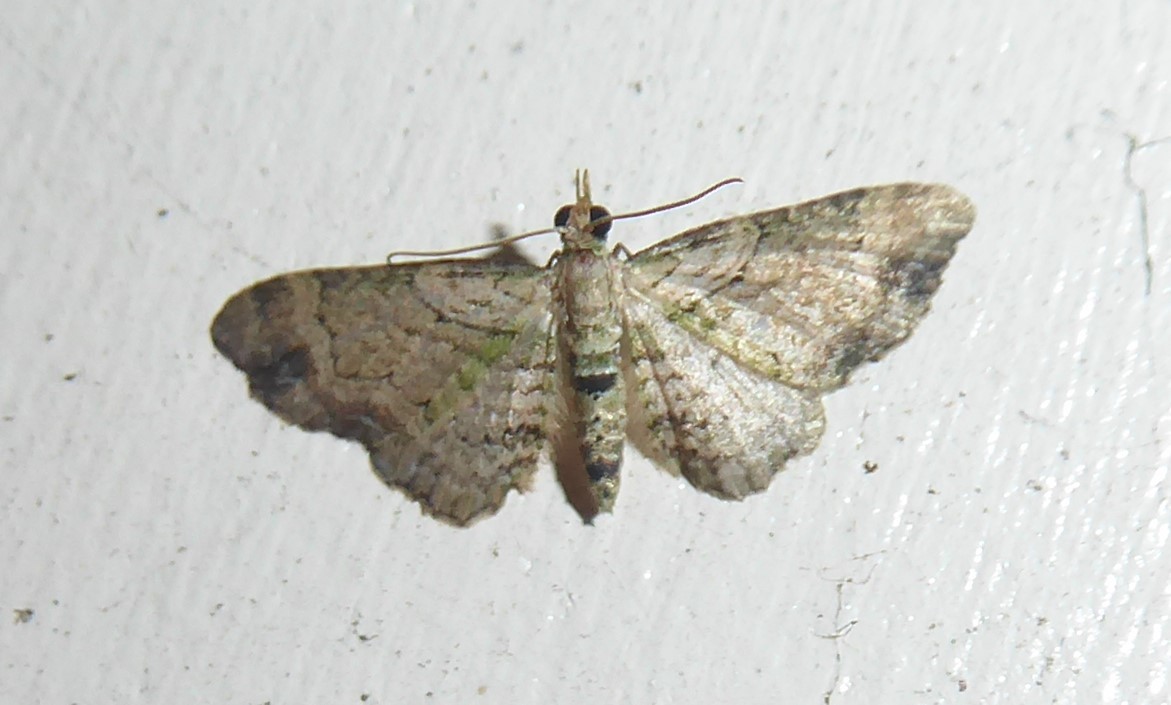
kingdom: Animalia
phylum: Arthropoda
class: Insecta
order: Lepidoptera
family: Geometridae
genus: Chloroclystis
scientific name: Chloroclystis
